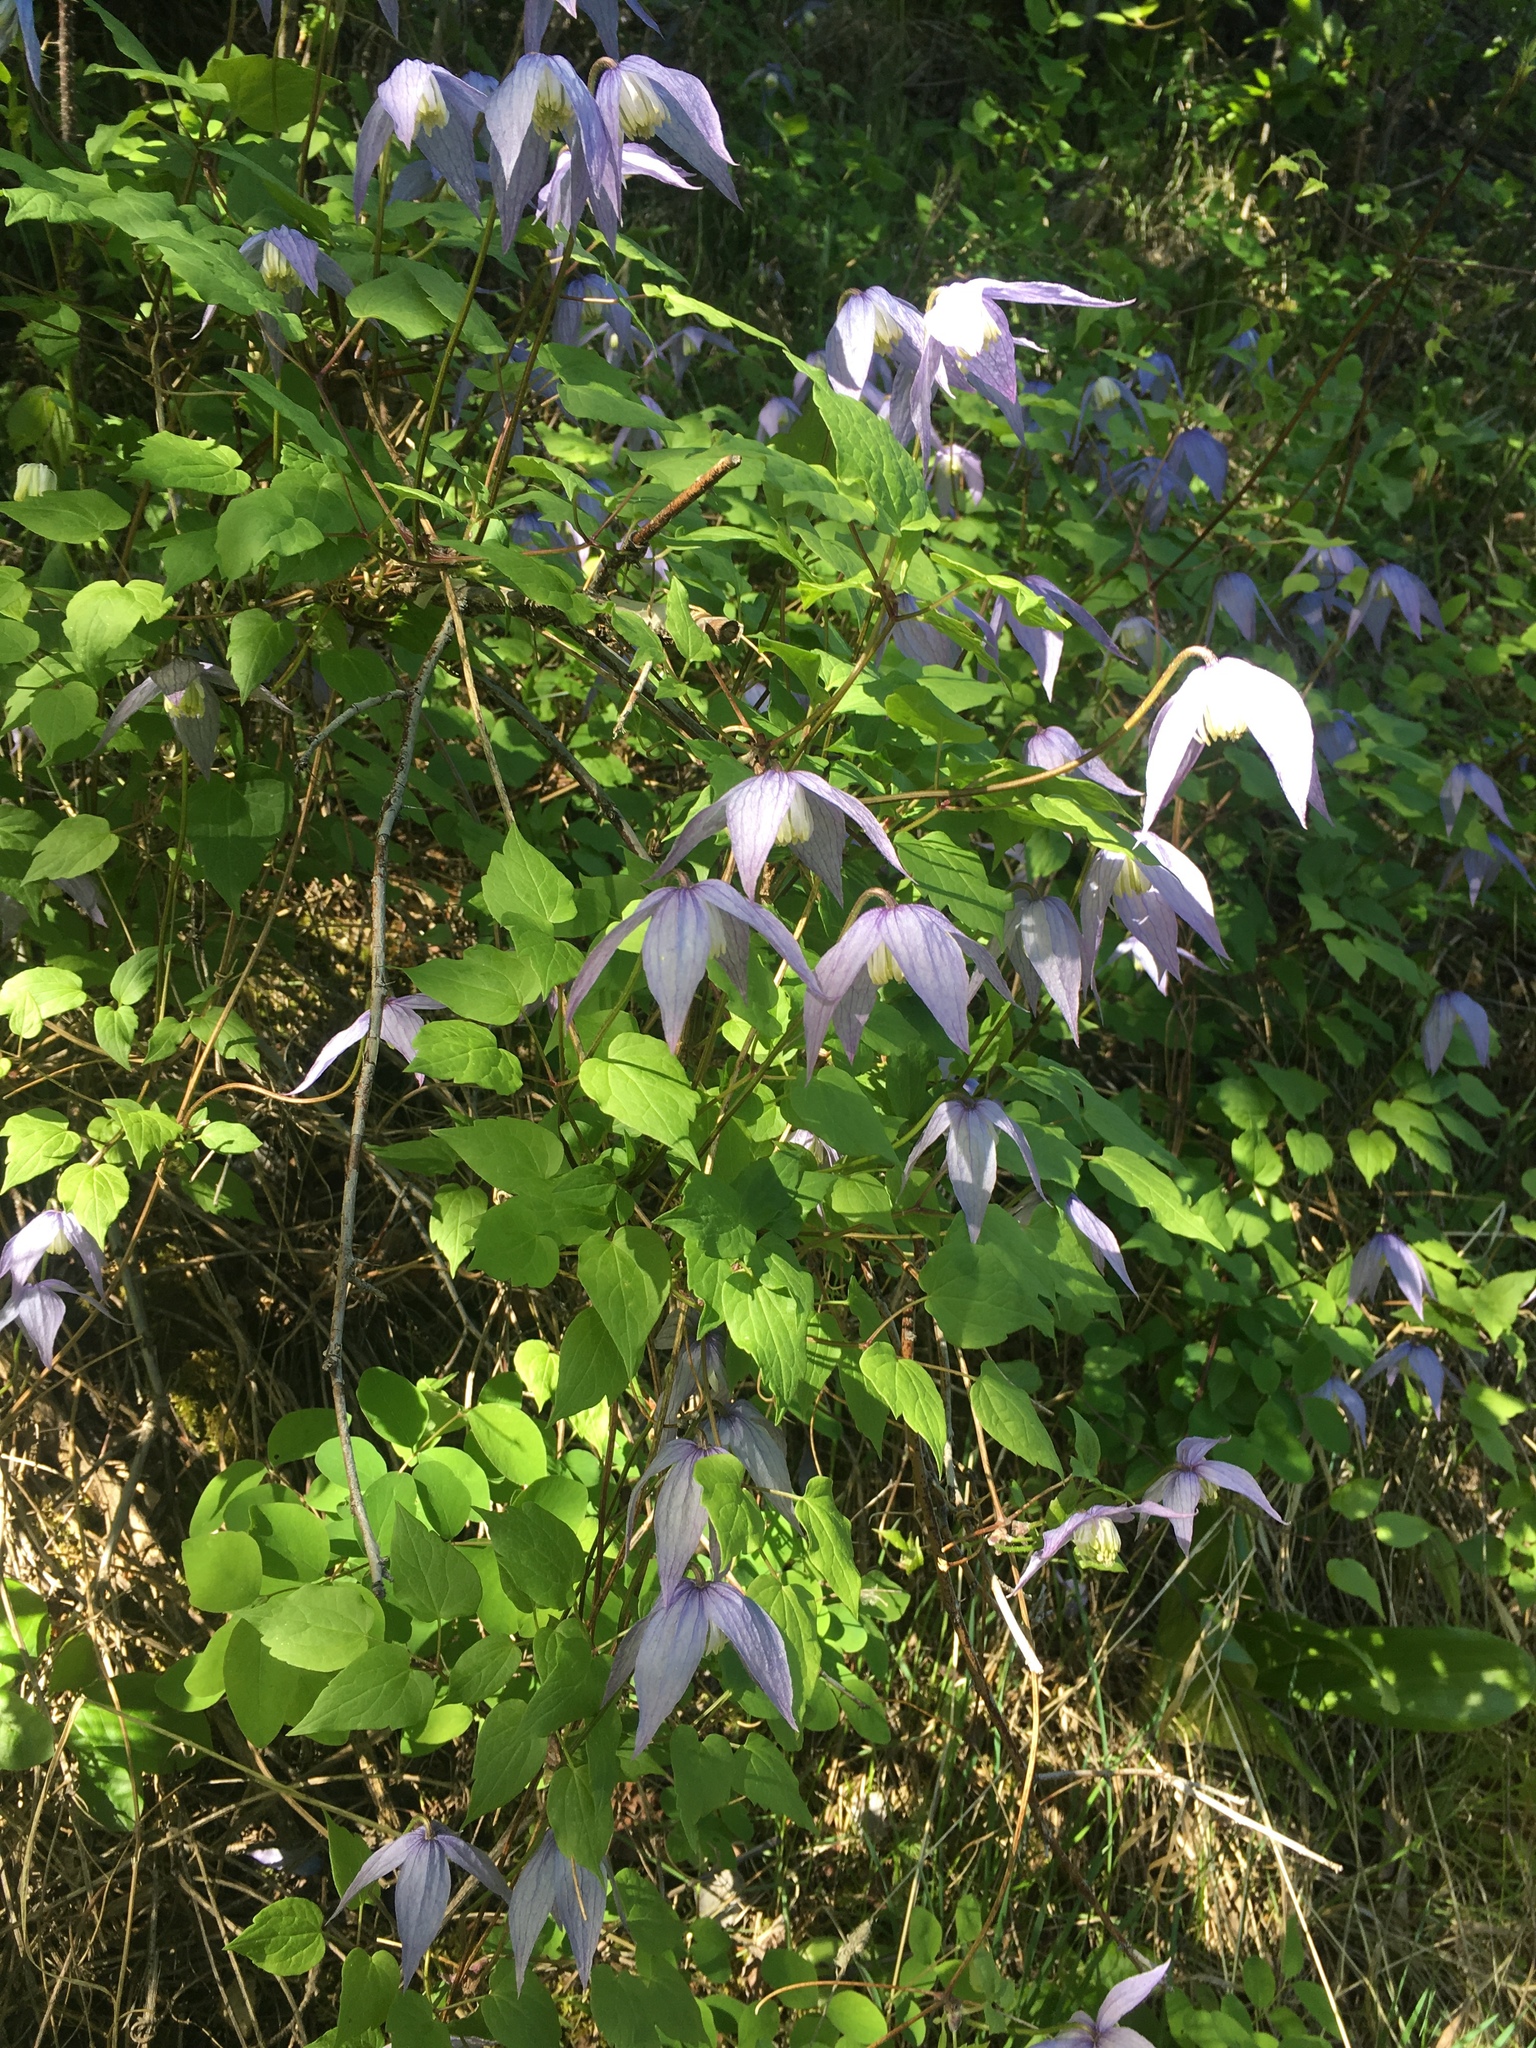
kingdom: Plantae
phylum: Tracheophyta
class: Magnoliopsida
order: Ranunculales
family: Ranunculaceae
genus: Clematis
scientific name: Clematis occidentalis
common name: Purple clematis
